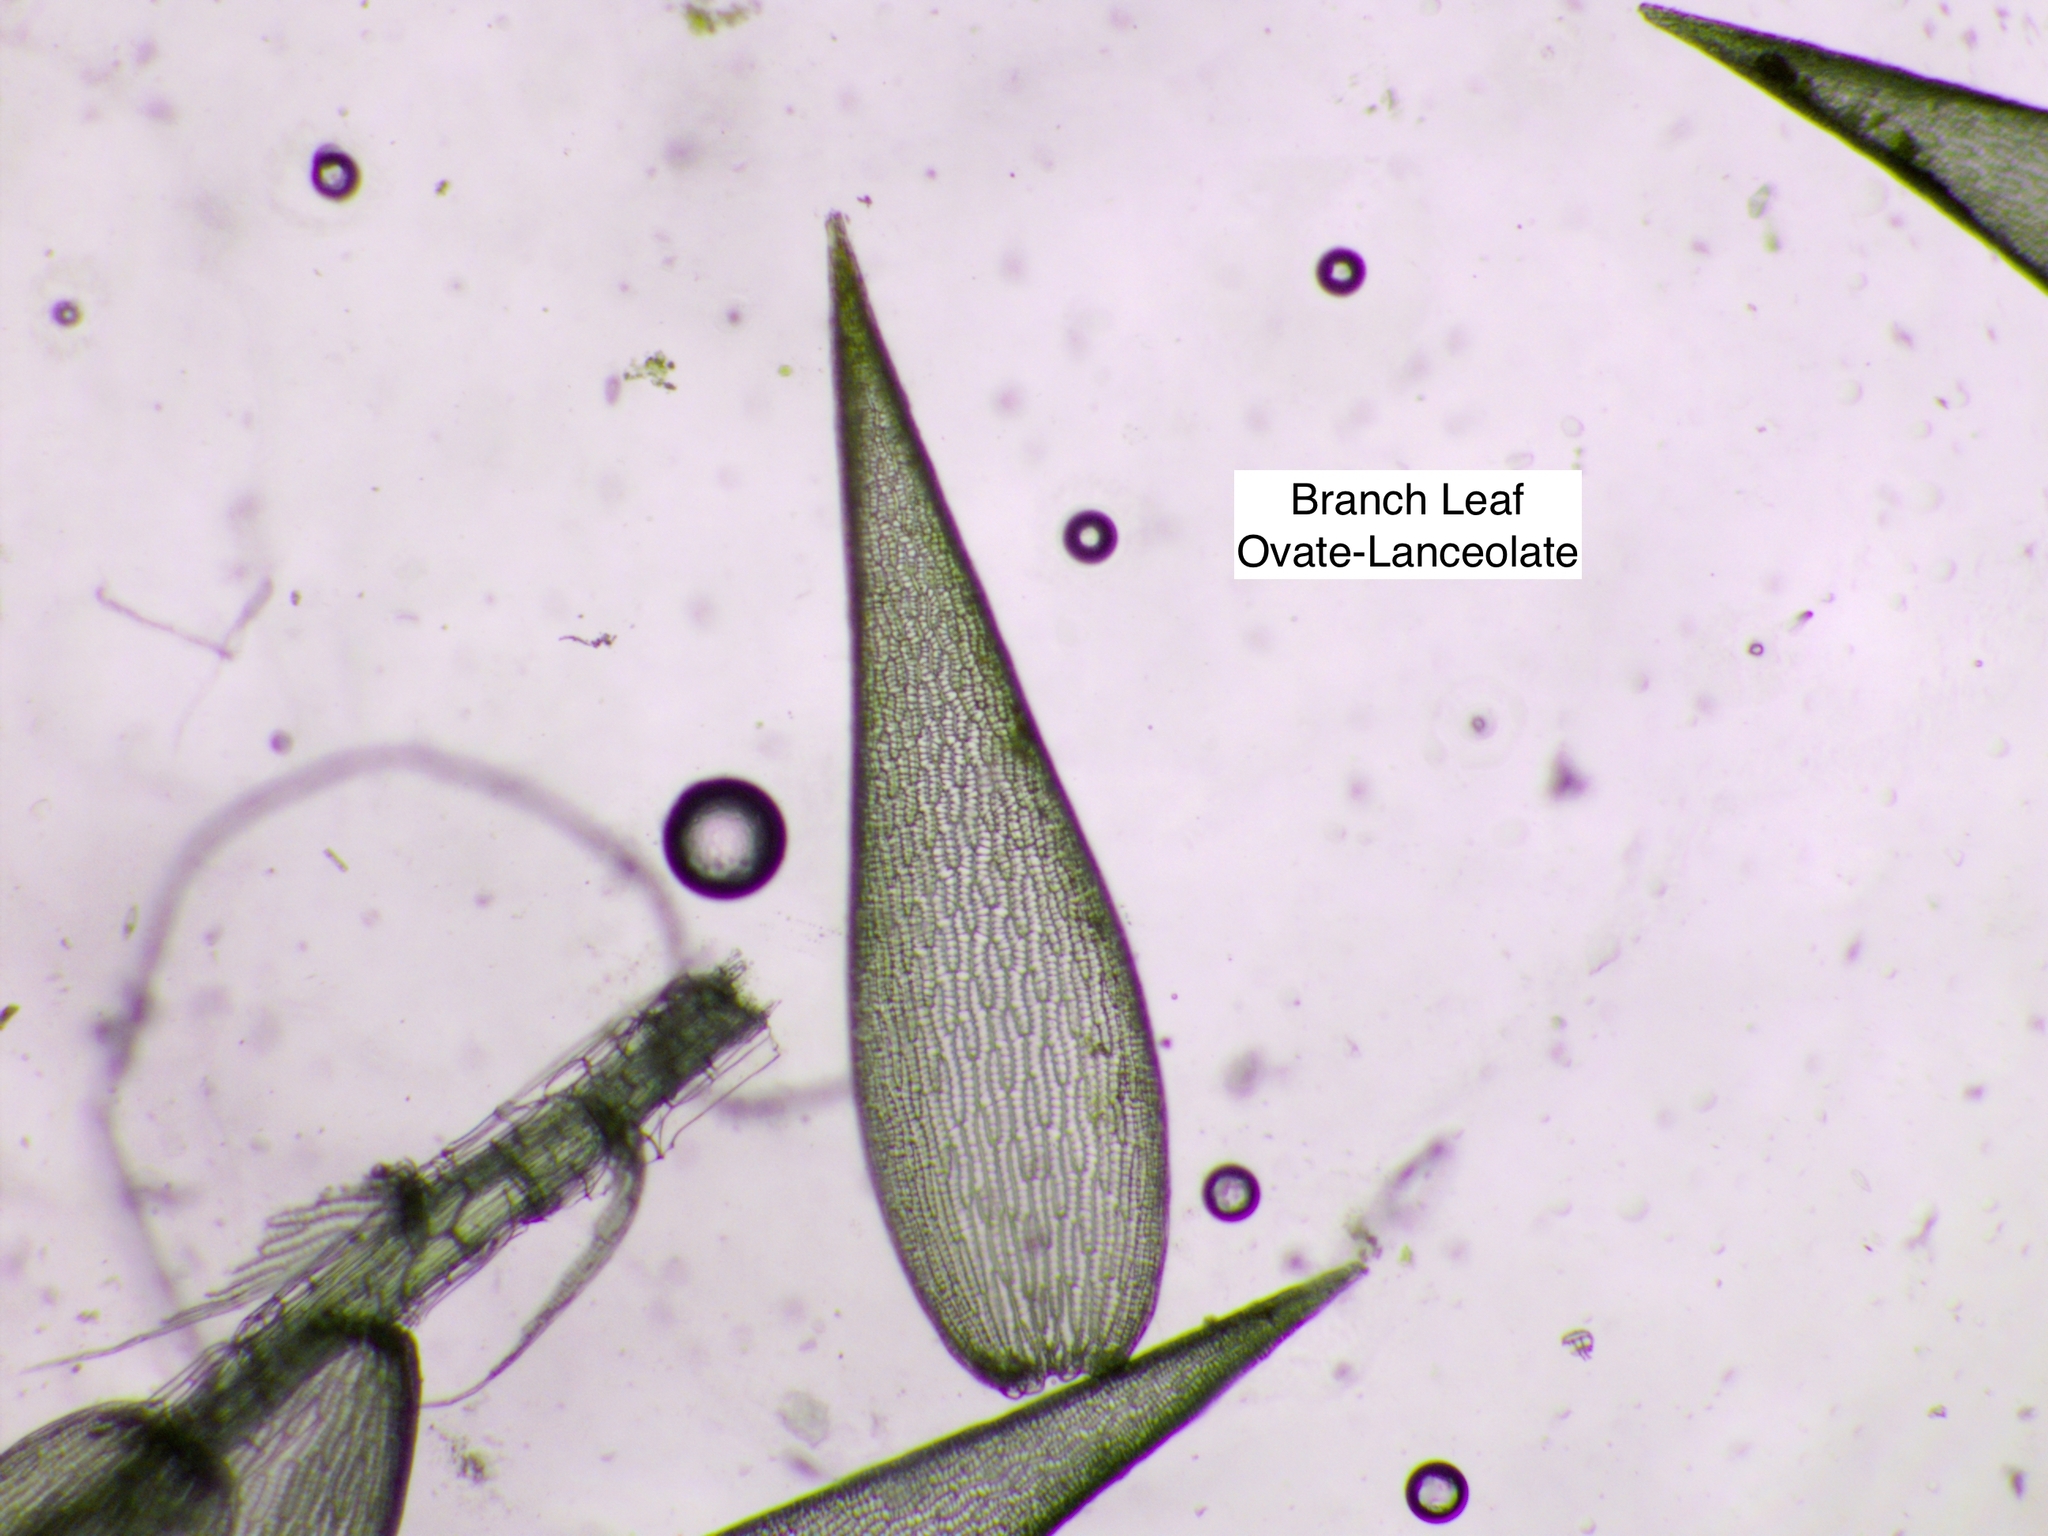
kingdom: Plantae
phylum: Bryophyta
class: Sphagnopsida
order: Sphagnales
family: Sphagnaceae
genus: Sphagnum
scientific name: Sphagnum fallax
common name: Flat-top peat moss
